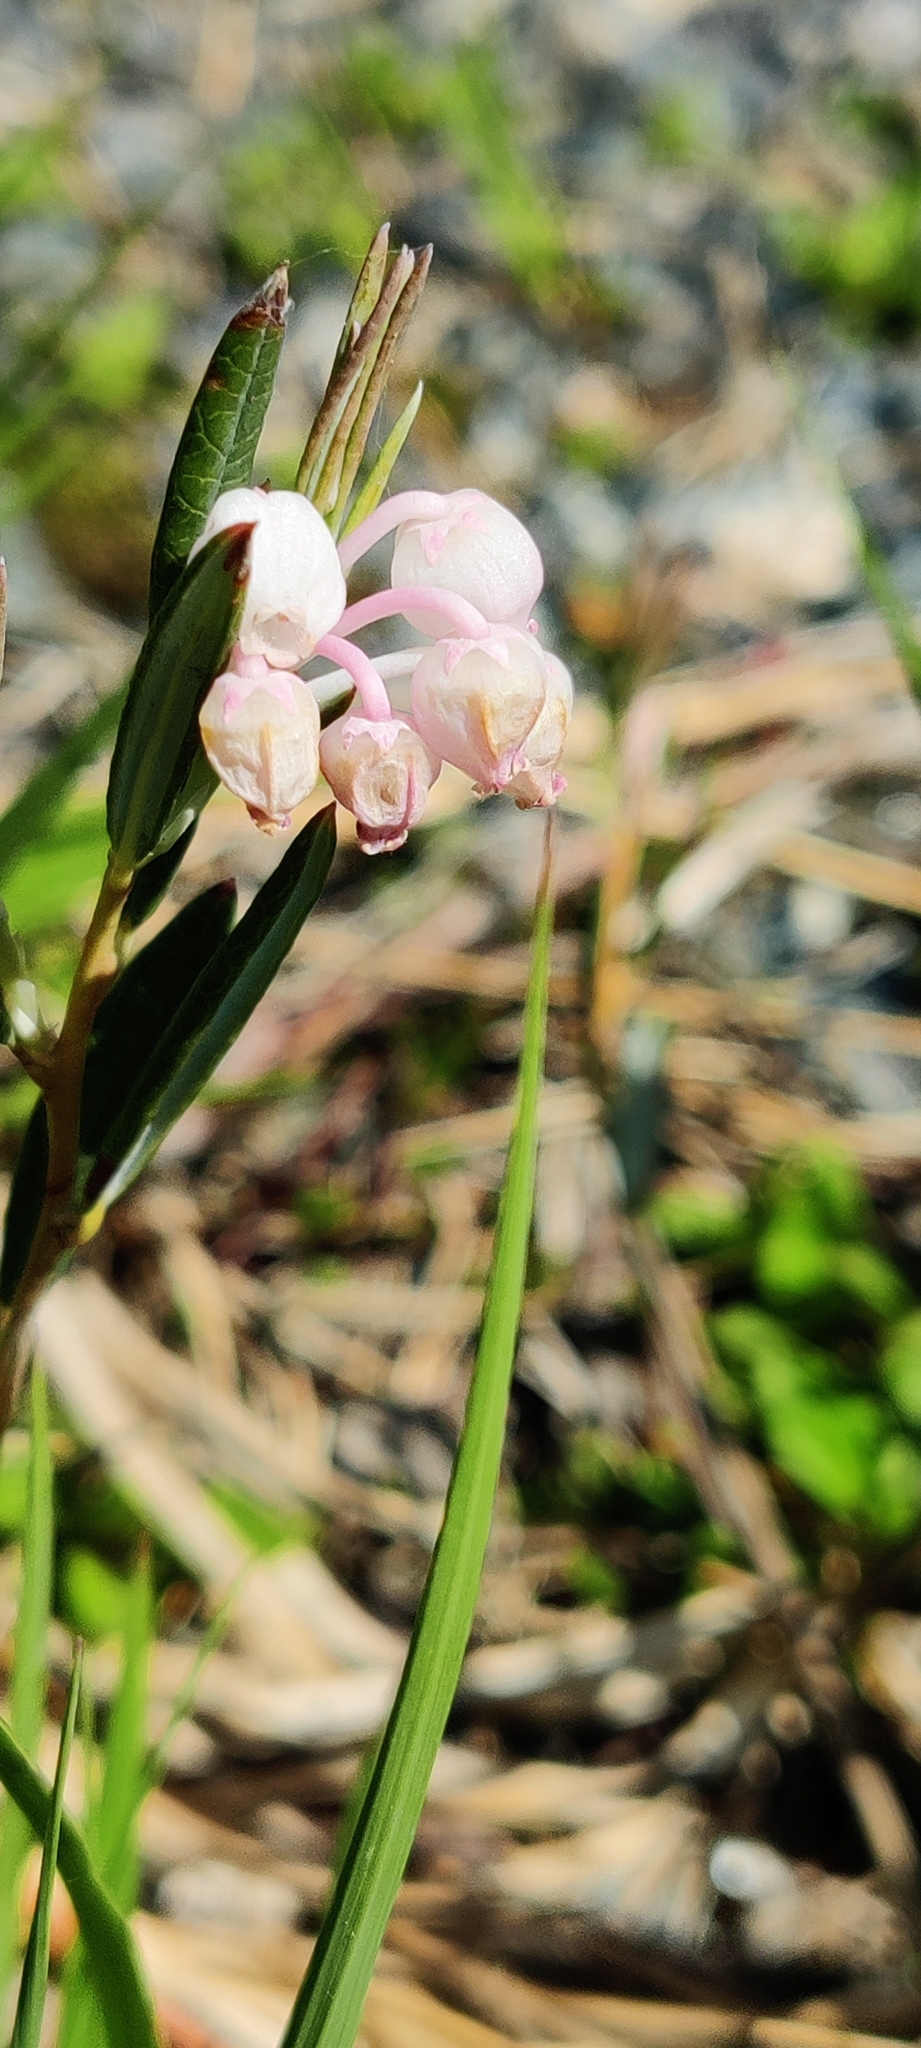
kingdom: Plantae
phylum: Tracheophyta
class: Magnoliopsida
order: Ericales
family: Ericaceae
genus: Andromeda
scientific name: Andromeda polifolia
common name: Bog-rosemary
